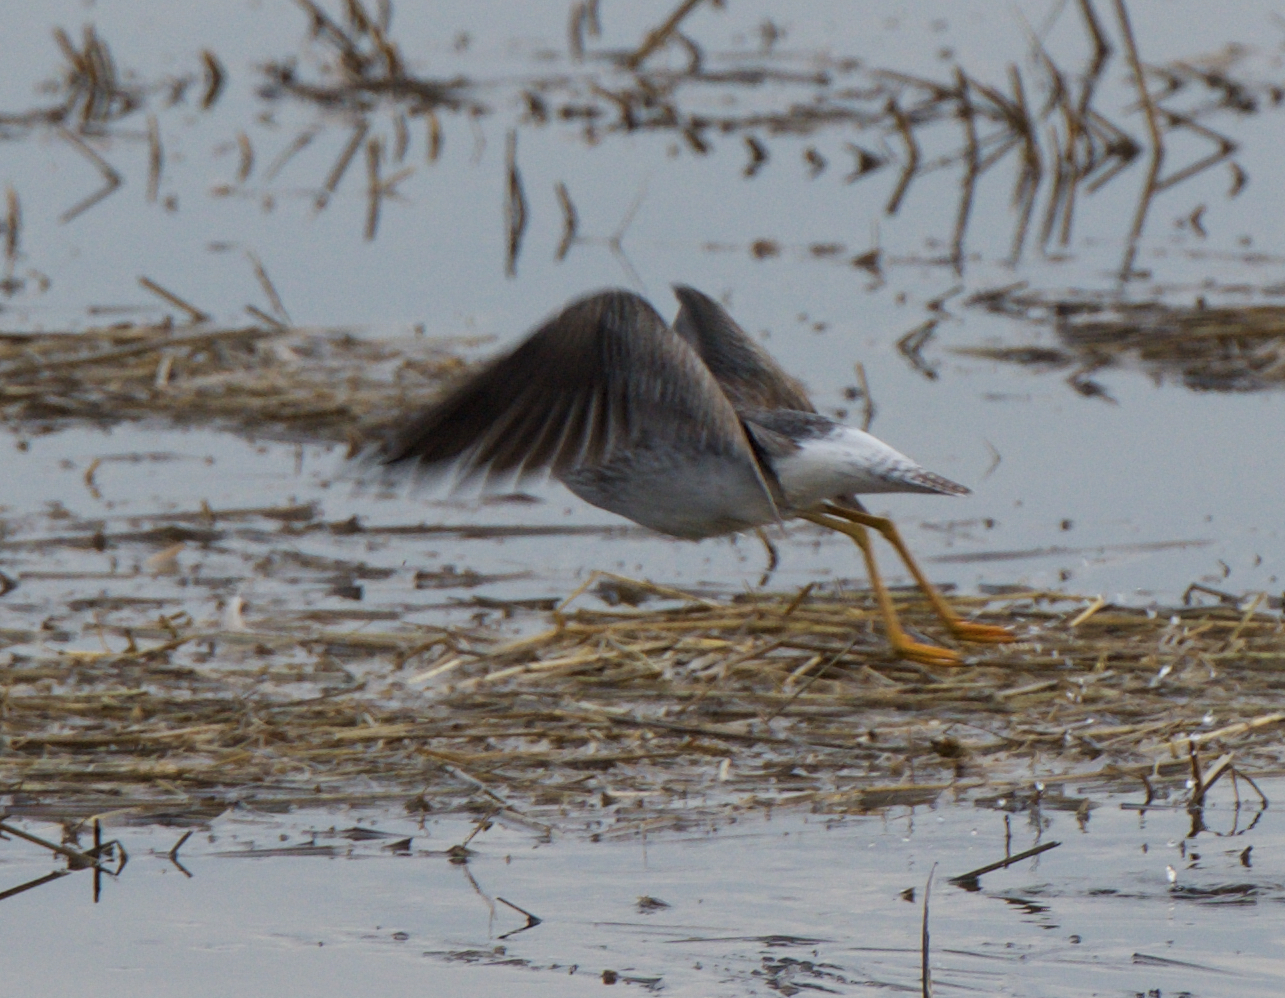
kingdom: Animalia
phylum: Chordata
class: Aves
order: Charadriiformes
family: Scolopacidae
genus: Tringa
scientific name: Tringa melanoleuca
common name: Greater yellowlegs
